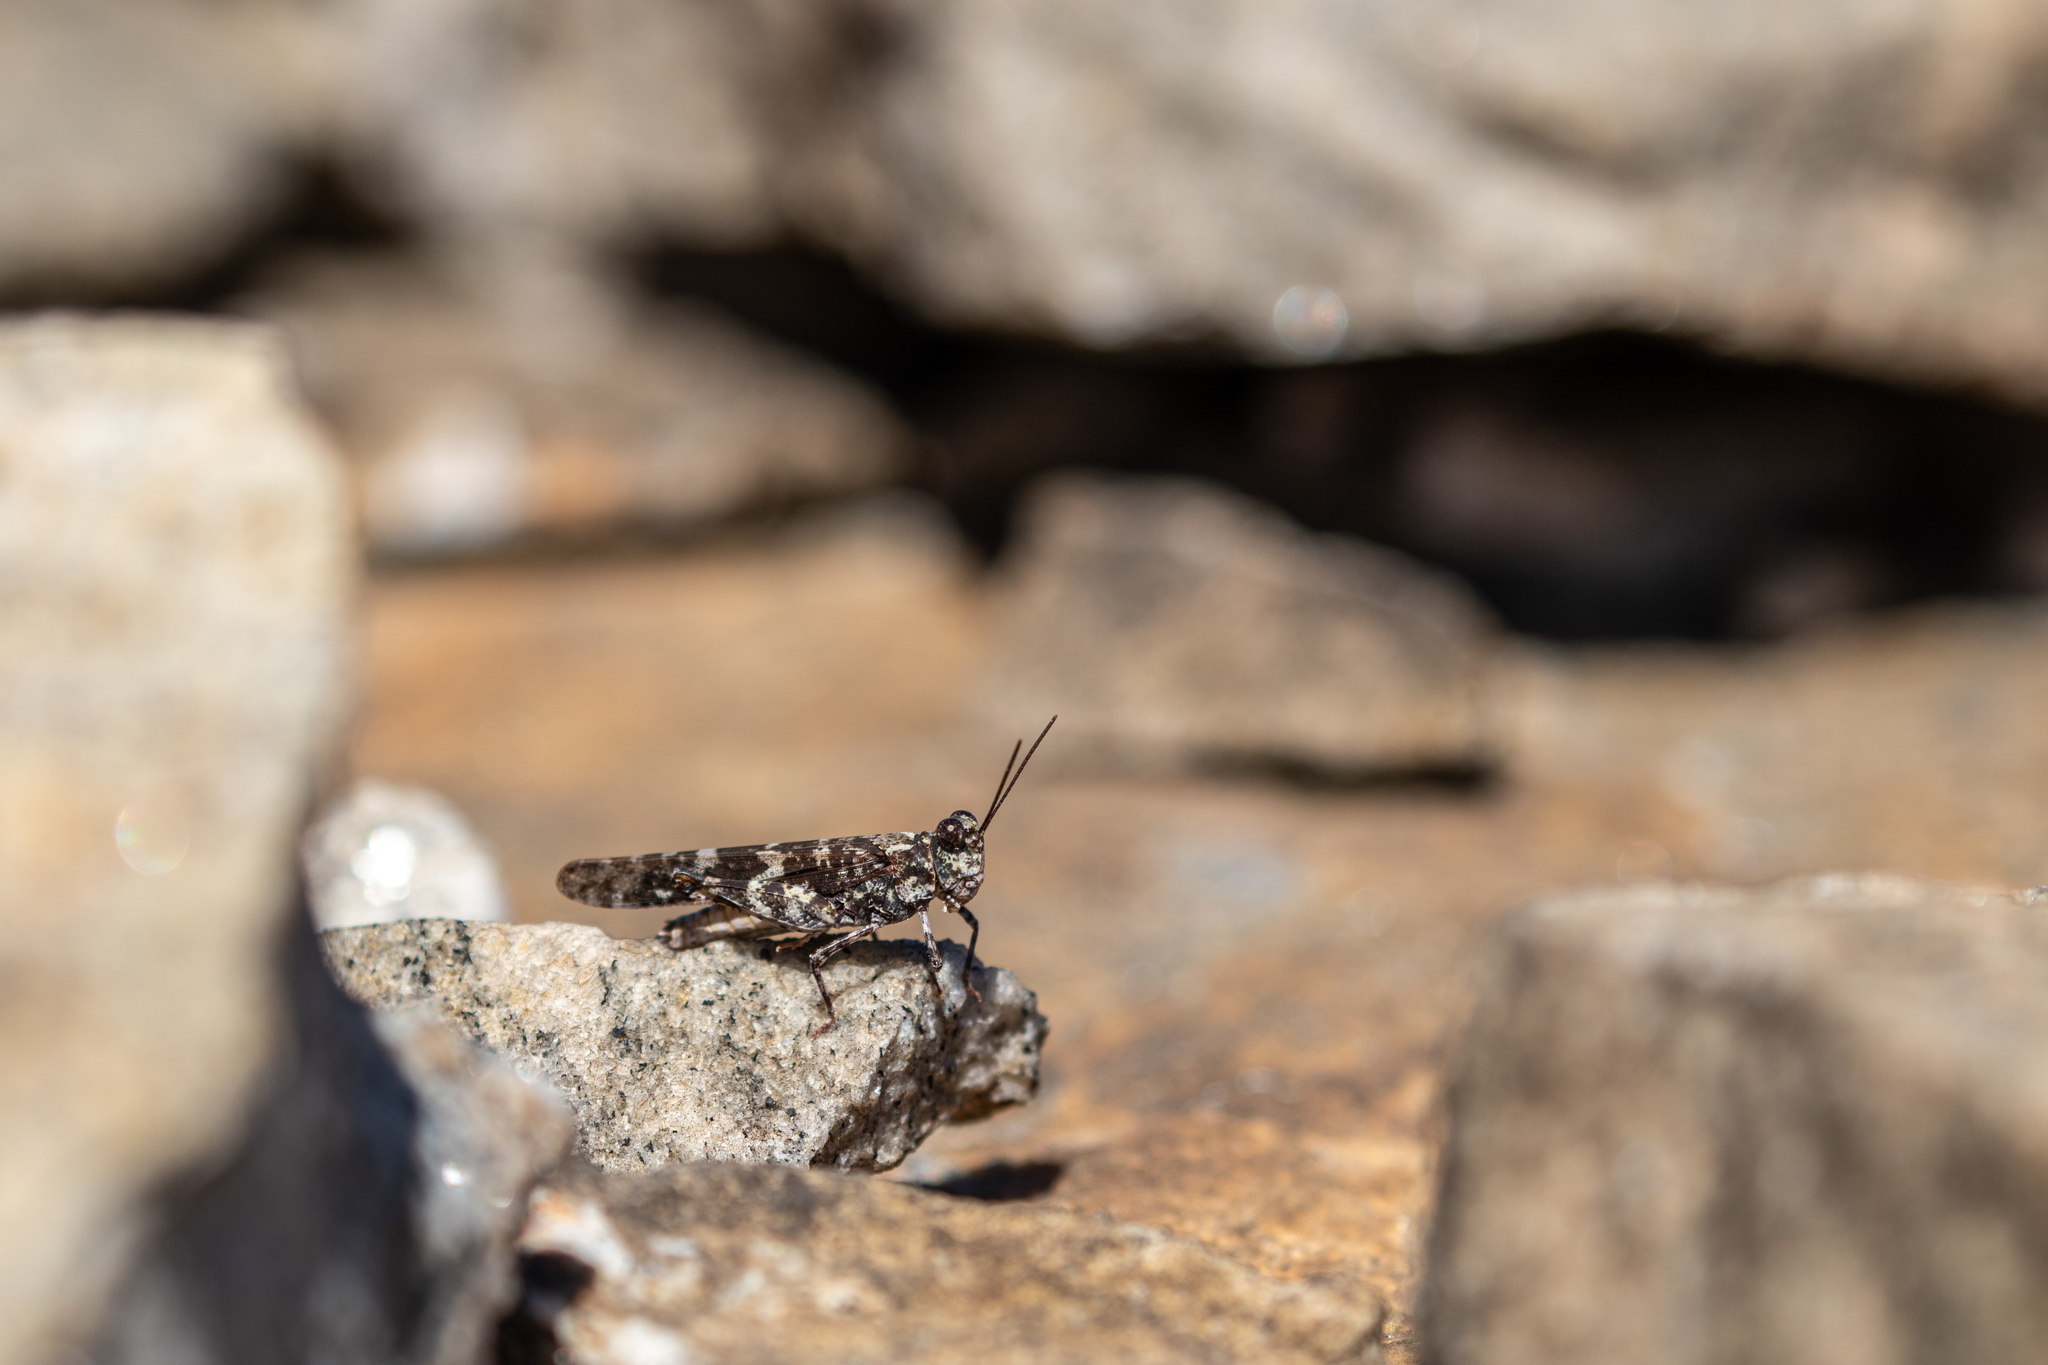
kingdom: Animalia
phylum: Arthropoda
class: Insecta
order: Orthoptera
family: Acrididae
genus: Trimerotropis
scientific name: Trimerotropis saxatilis
